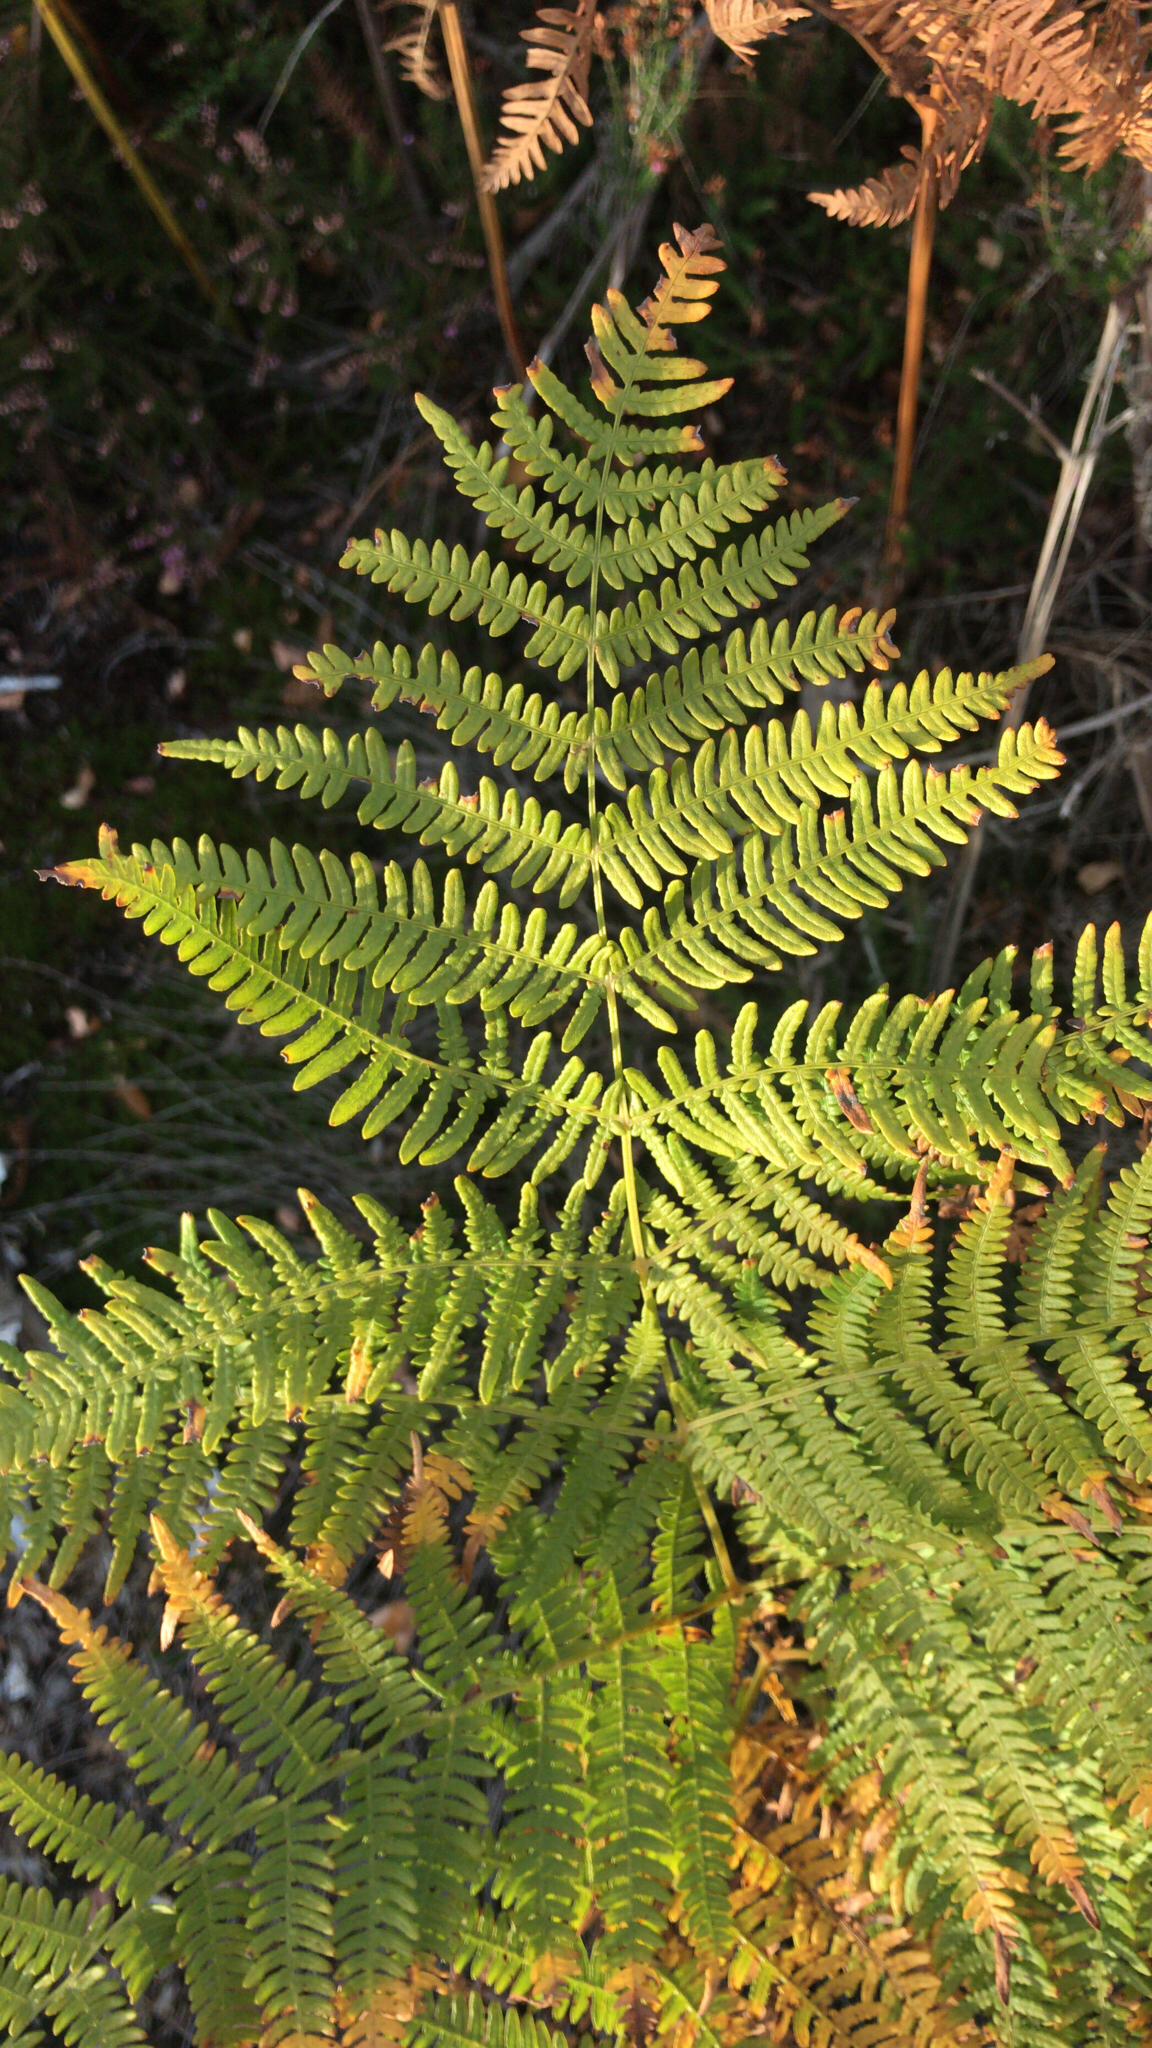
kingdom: Plantae
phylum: Tracheophyta
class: Polypodiopsida
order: Polypodiales
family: Dennstaedtiaceae
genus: Pteridium
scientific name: Pteridium aquilinum
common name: Bracken
